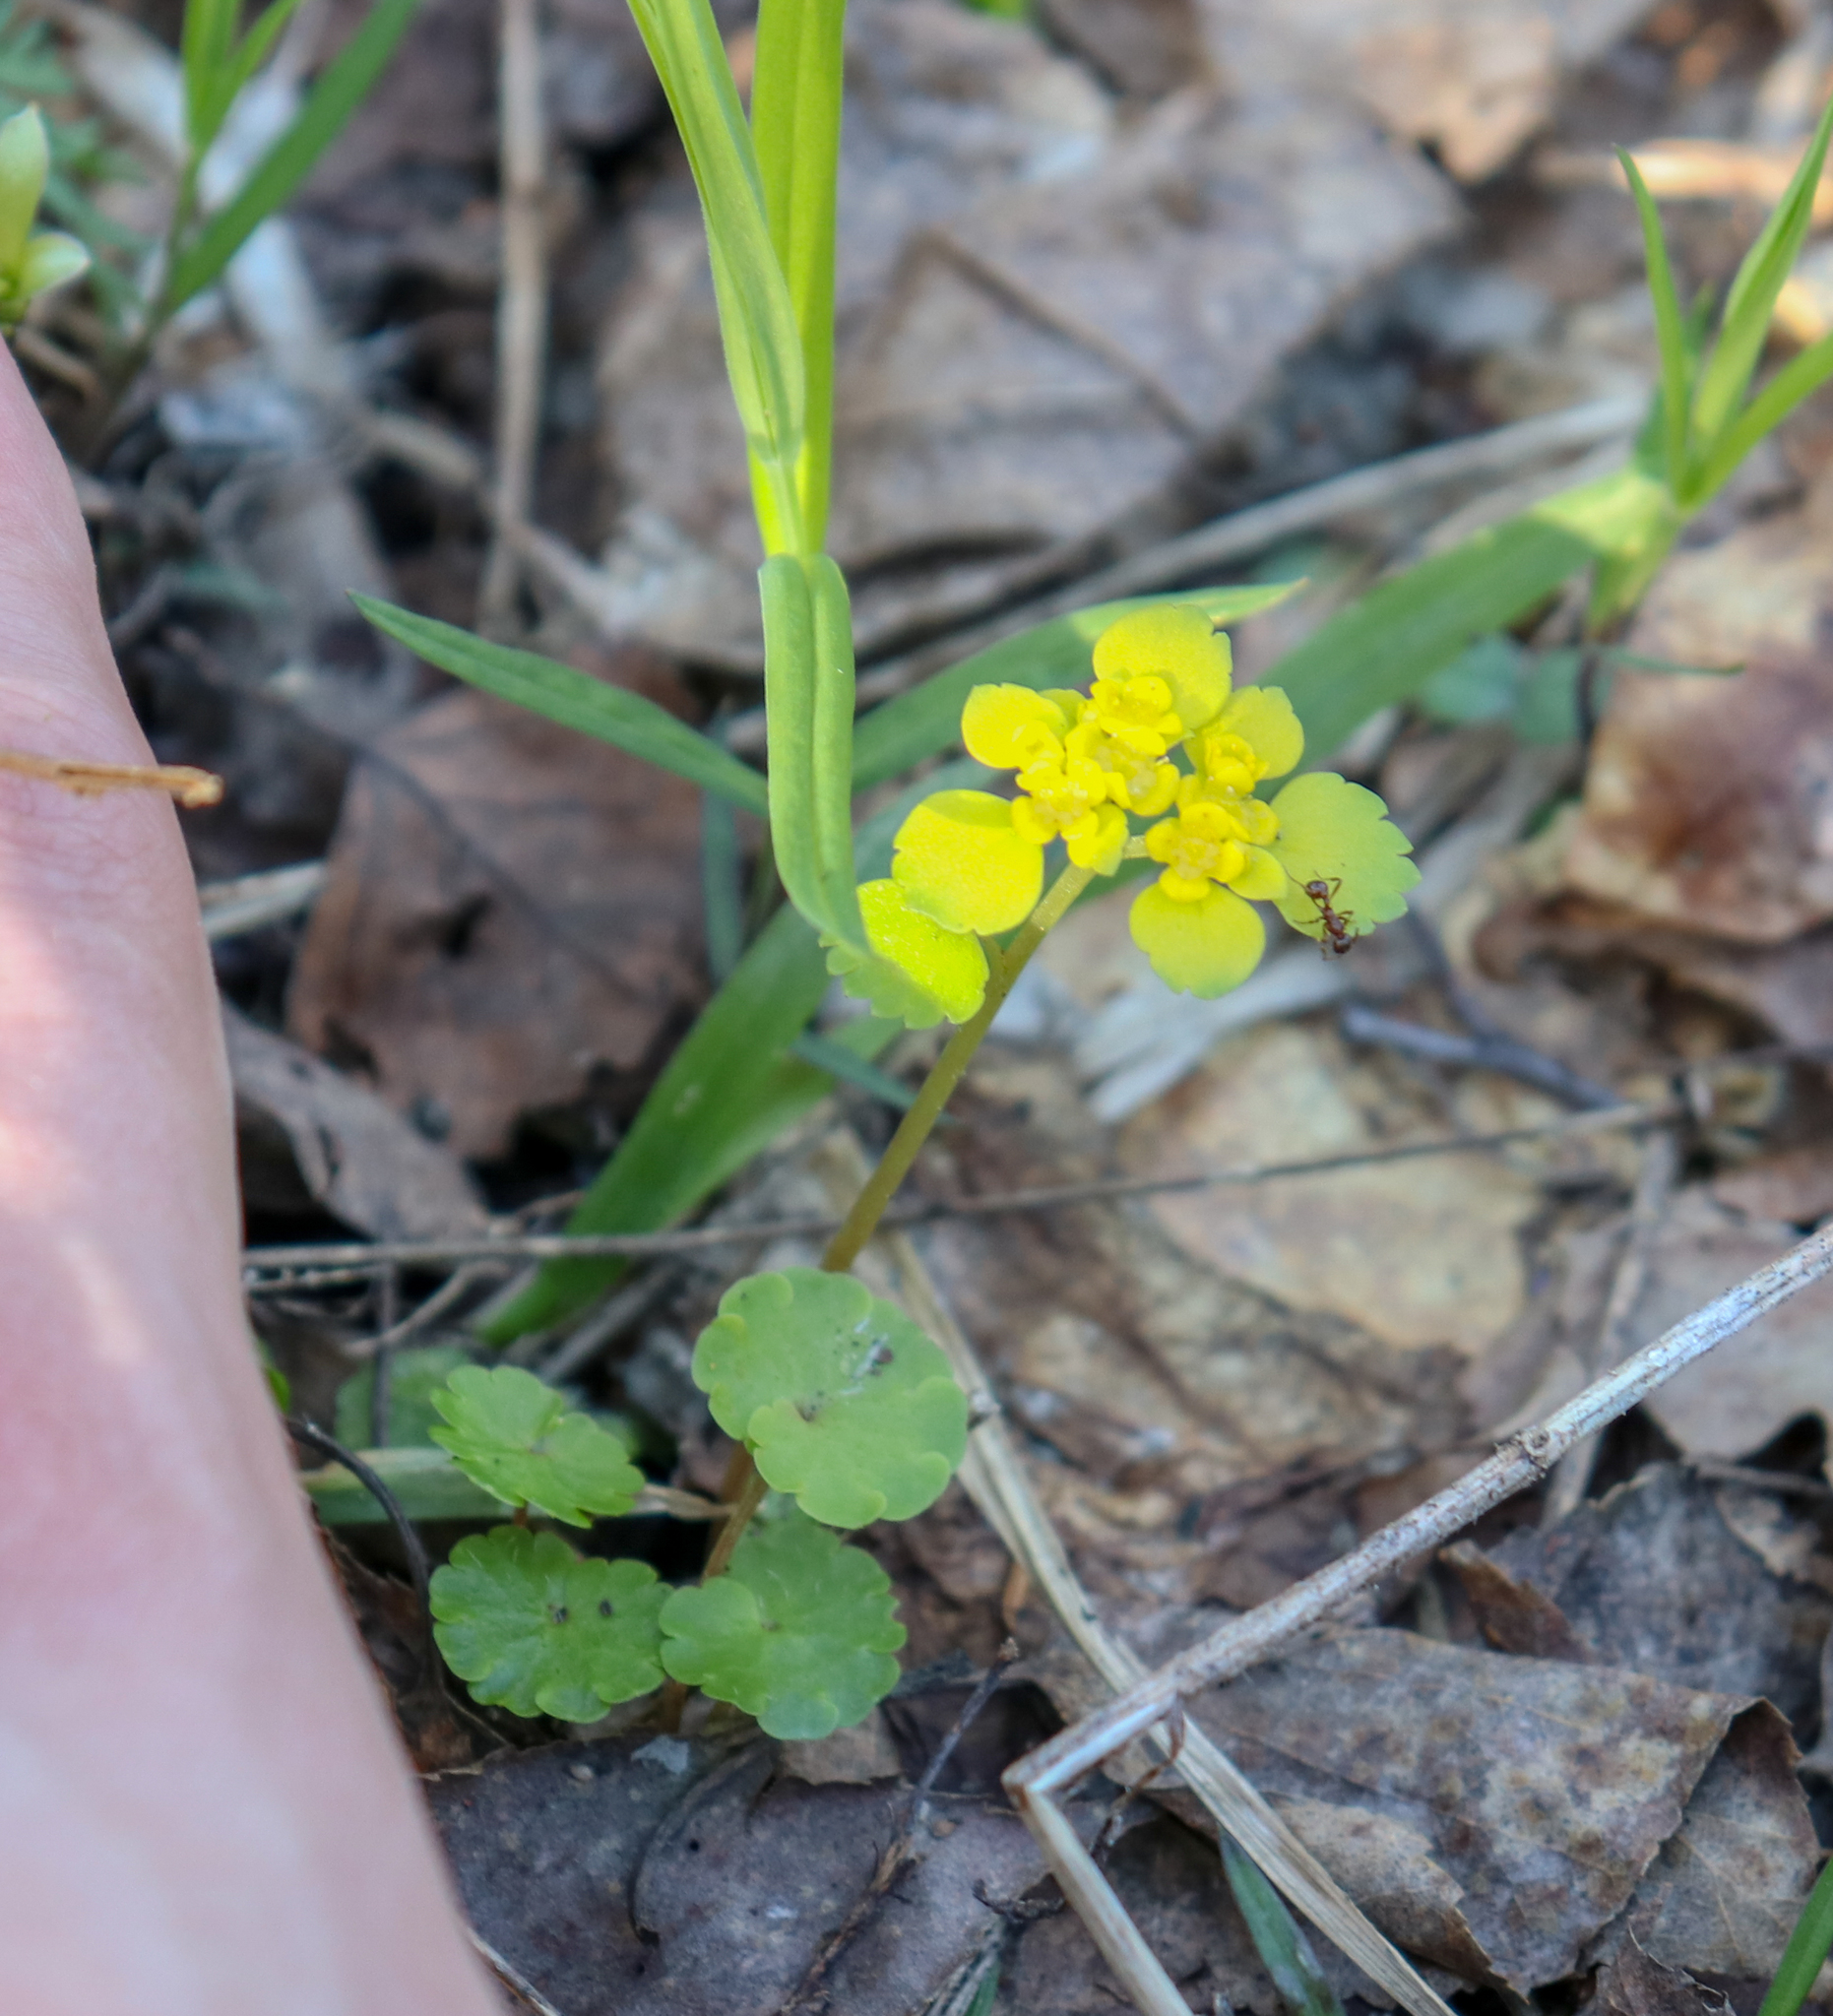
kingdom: Plantae
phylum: Tracheophyta
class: Magnoliopsida
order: Saxifragales
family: Saxifragaceae
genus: Chrysosplenium
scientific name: Chrysosplenium alternifolium
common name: Alternate-leaved golden-saxifrage
